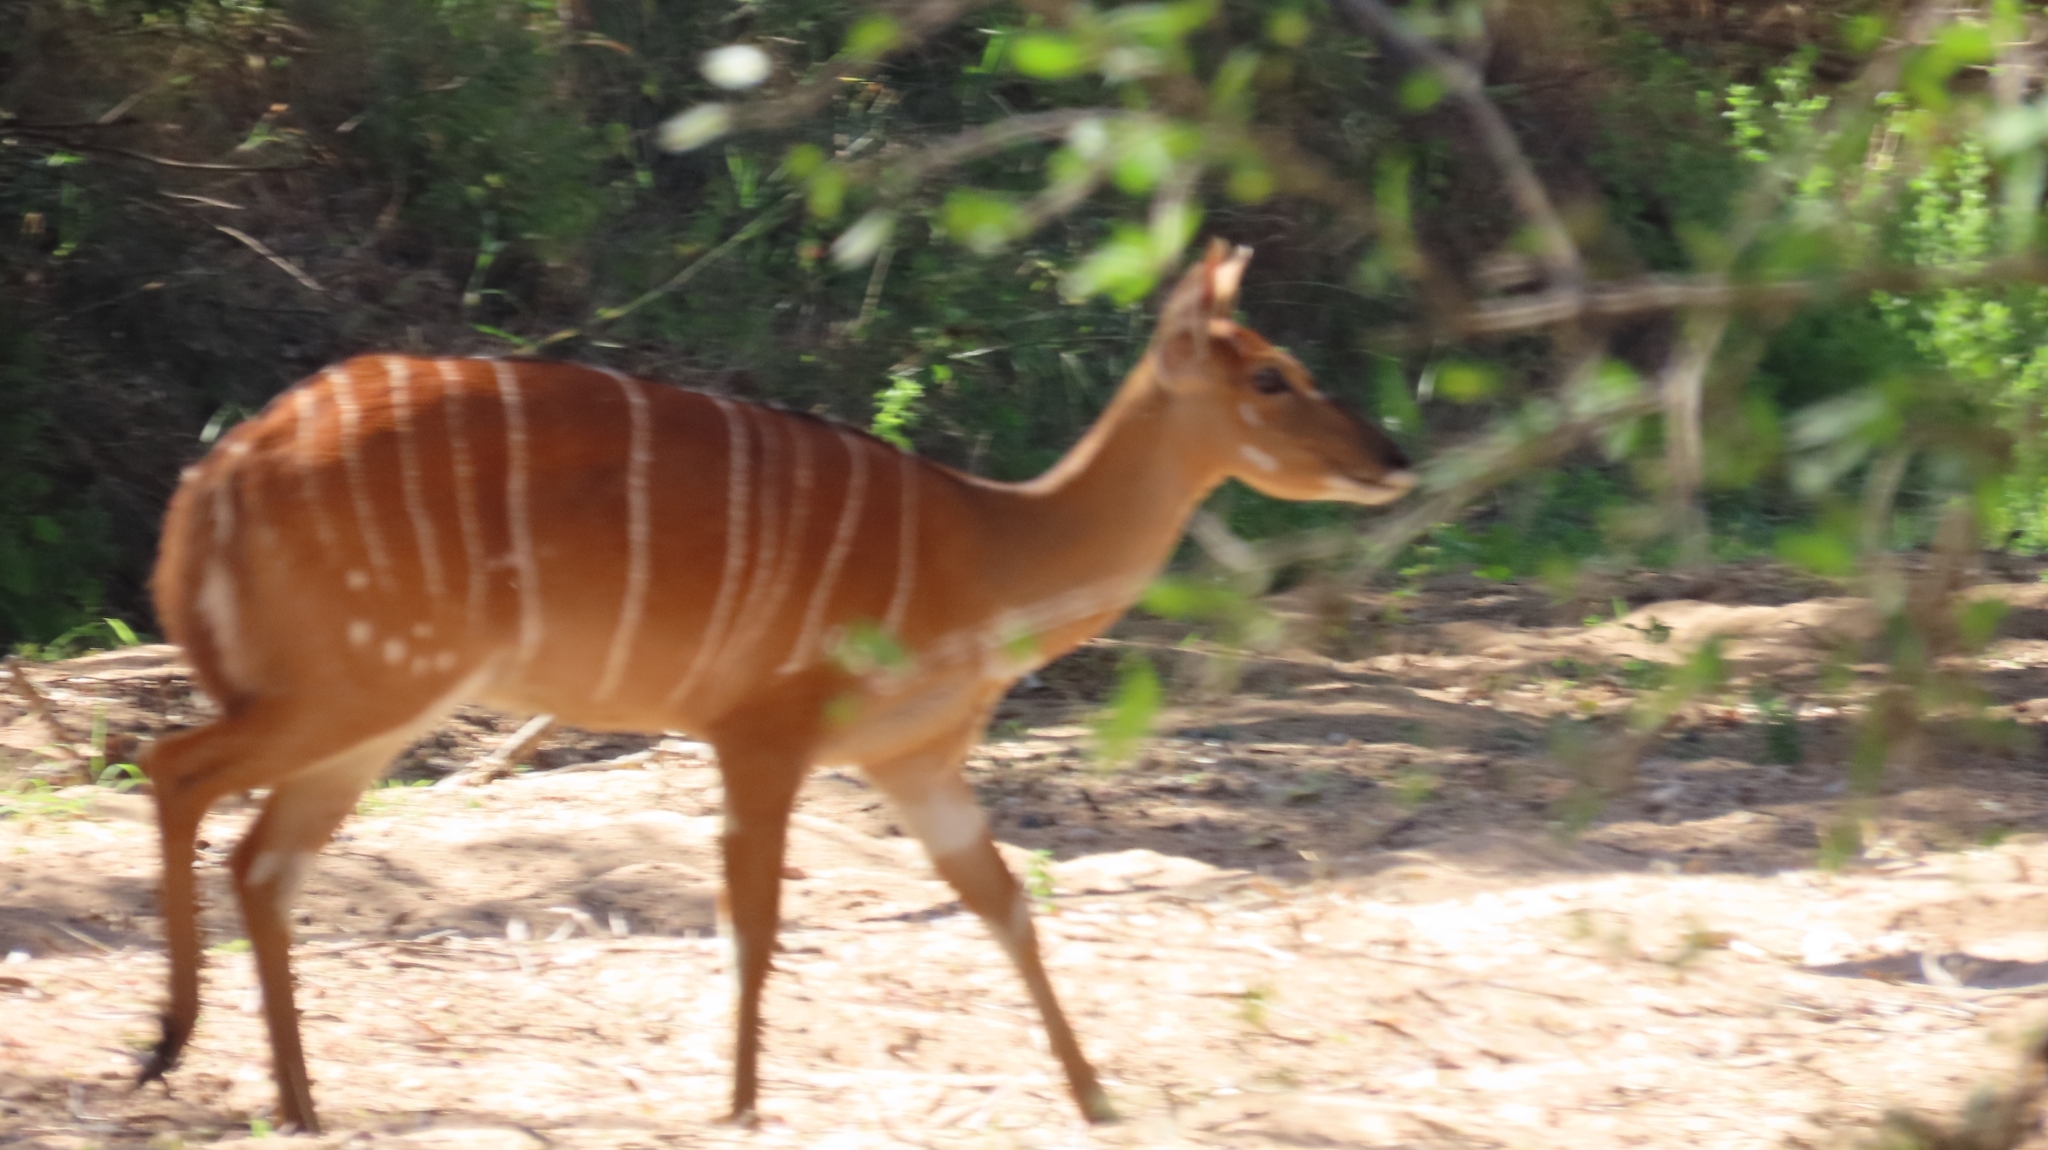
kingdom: Animalia
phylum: Chordata
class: Mammalia
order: Artiodactyla
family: Bovidae
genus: Tragelaphus
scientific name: Tragelaphus angasii
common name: Nyala
